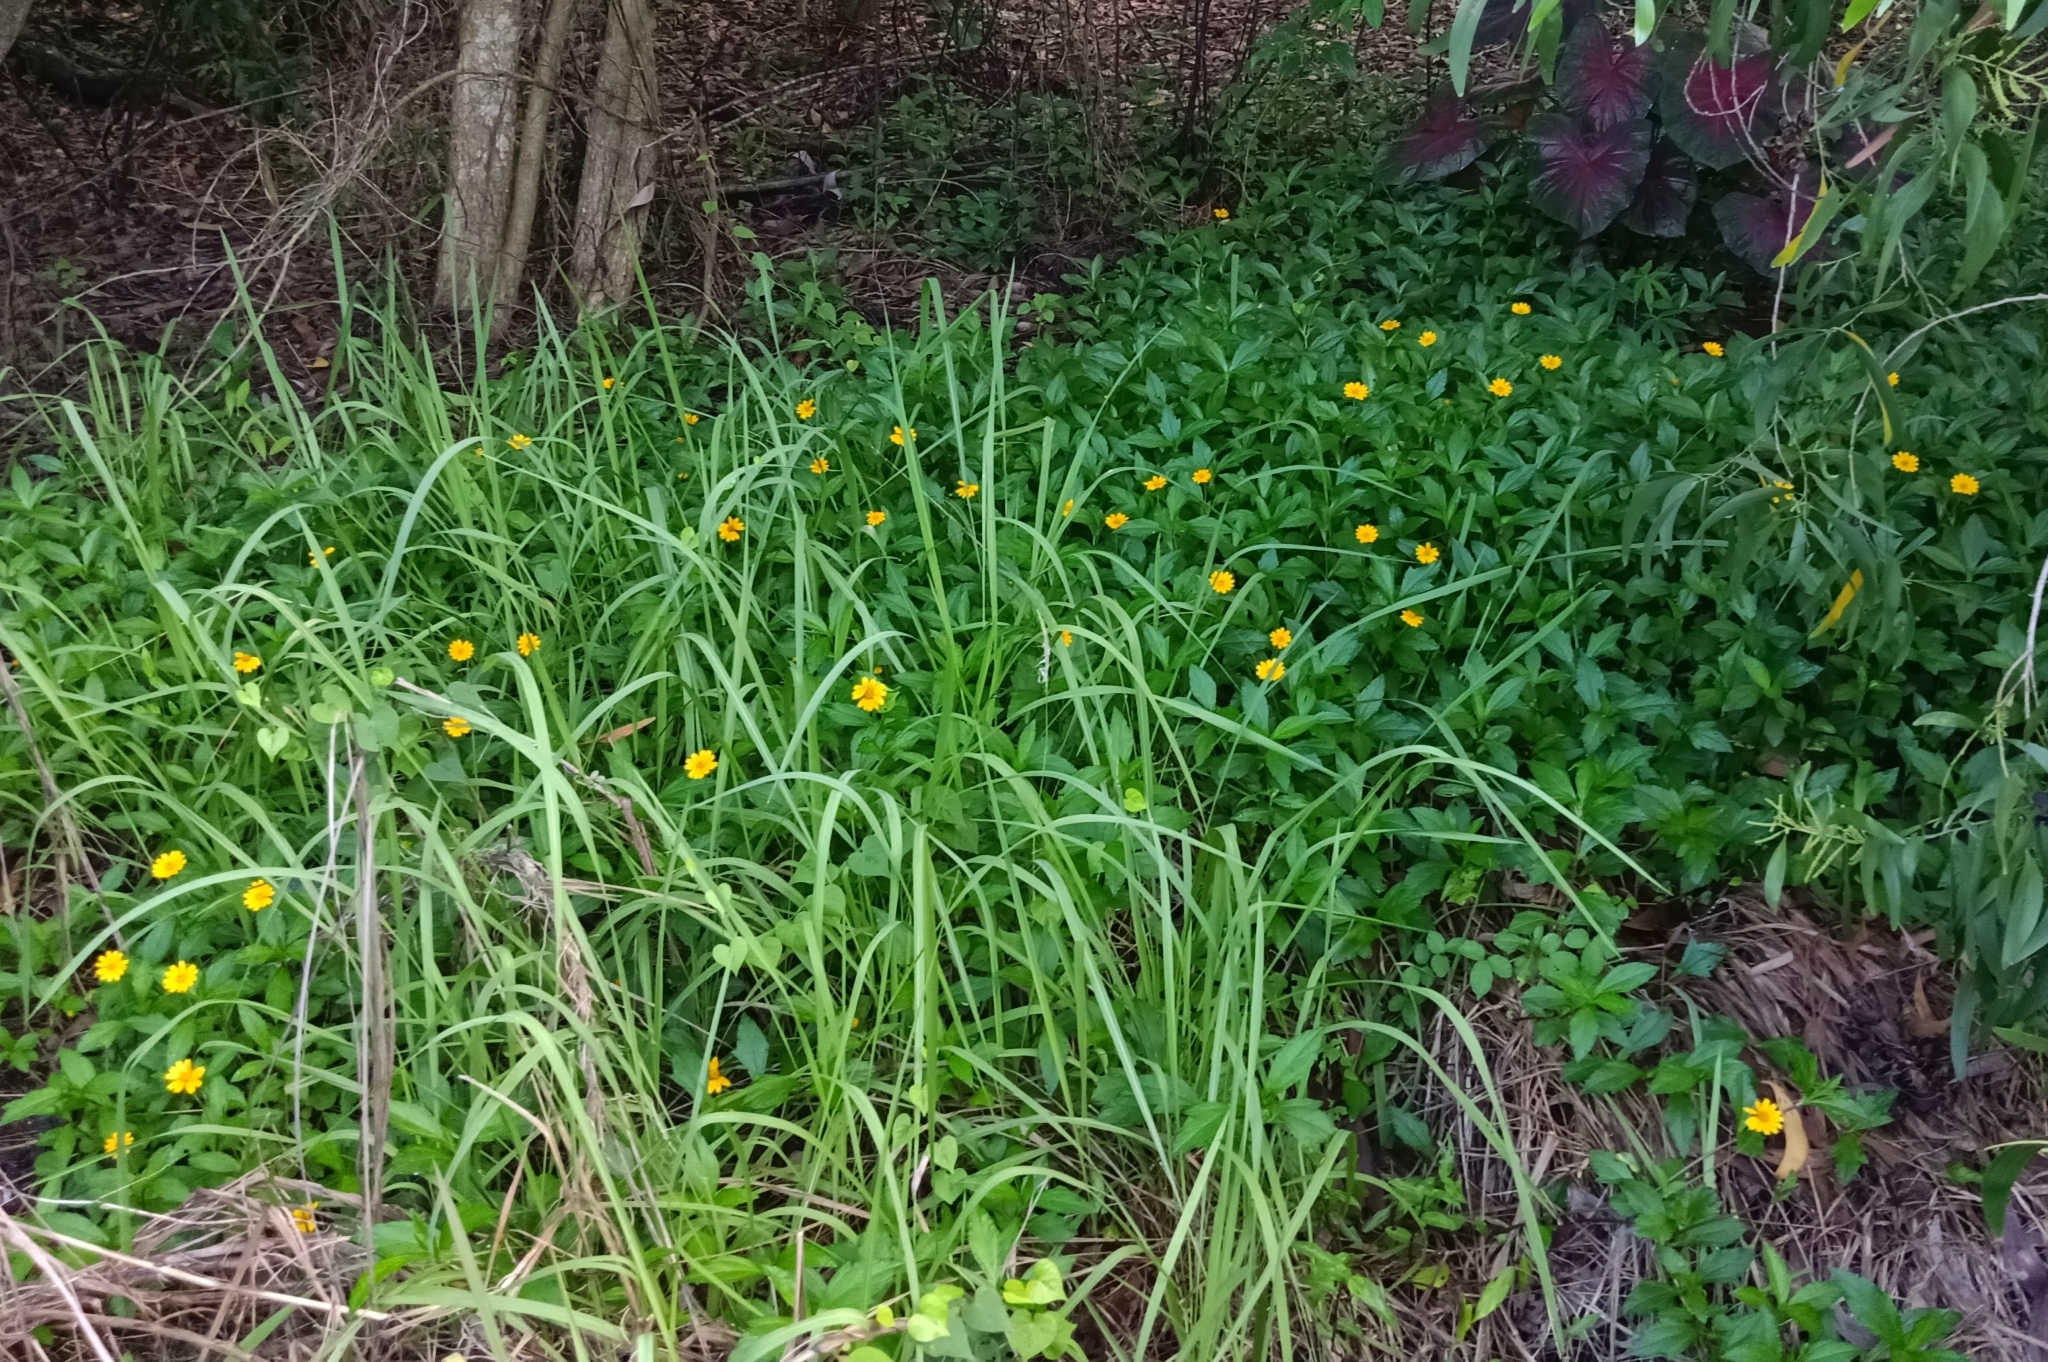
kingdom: Plantae
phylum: Tracheophyta
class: Magnoliopsida
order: Asterales
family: Asteraceae
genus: Sphagneticola
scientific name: Sphagneticola trilobata
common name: Bay biscayne creeping-oxeye
